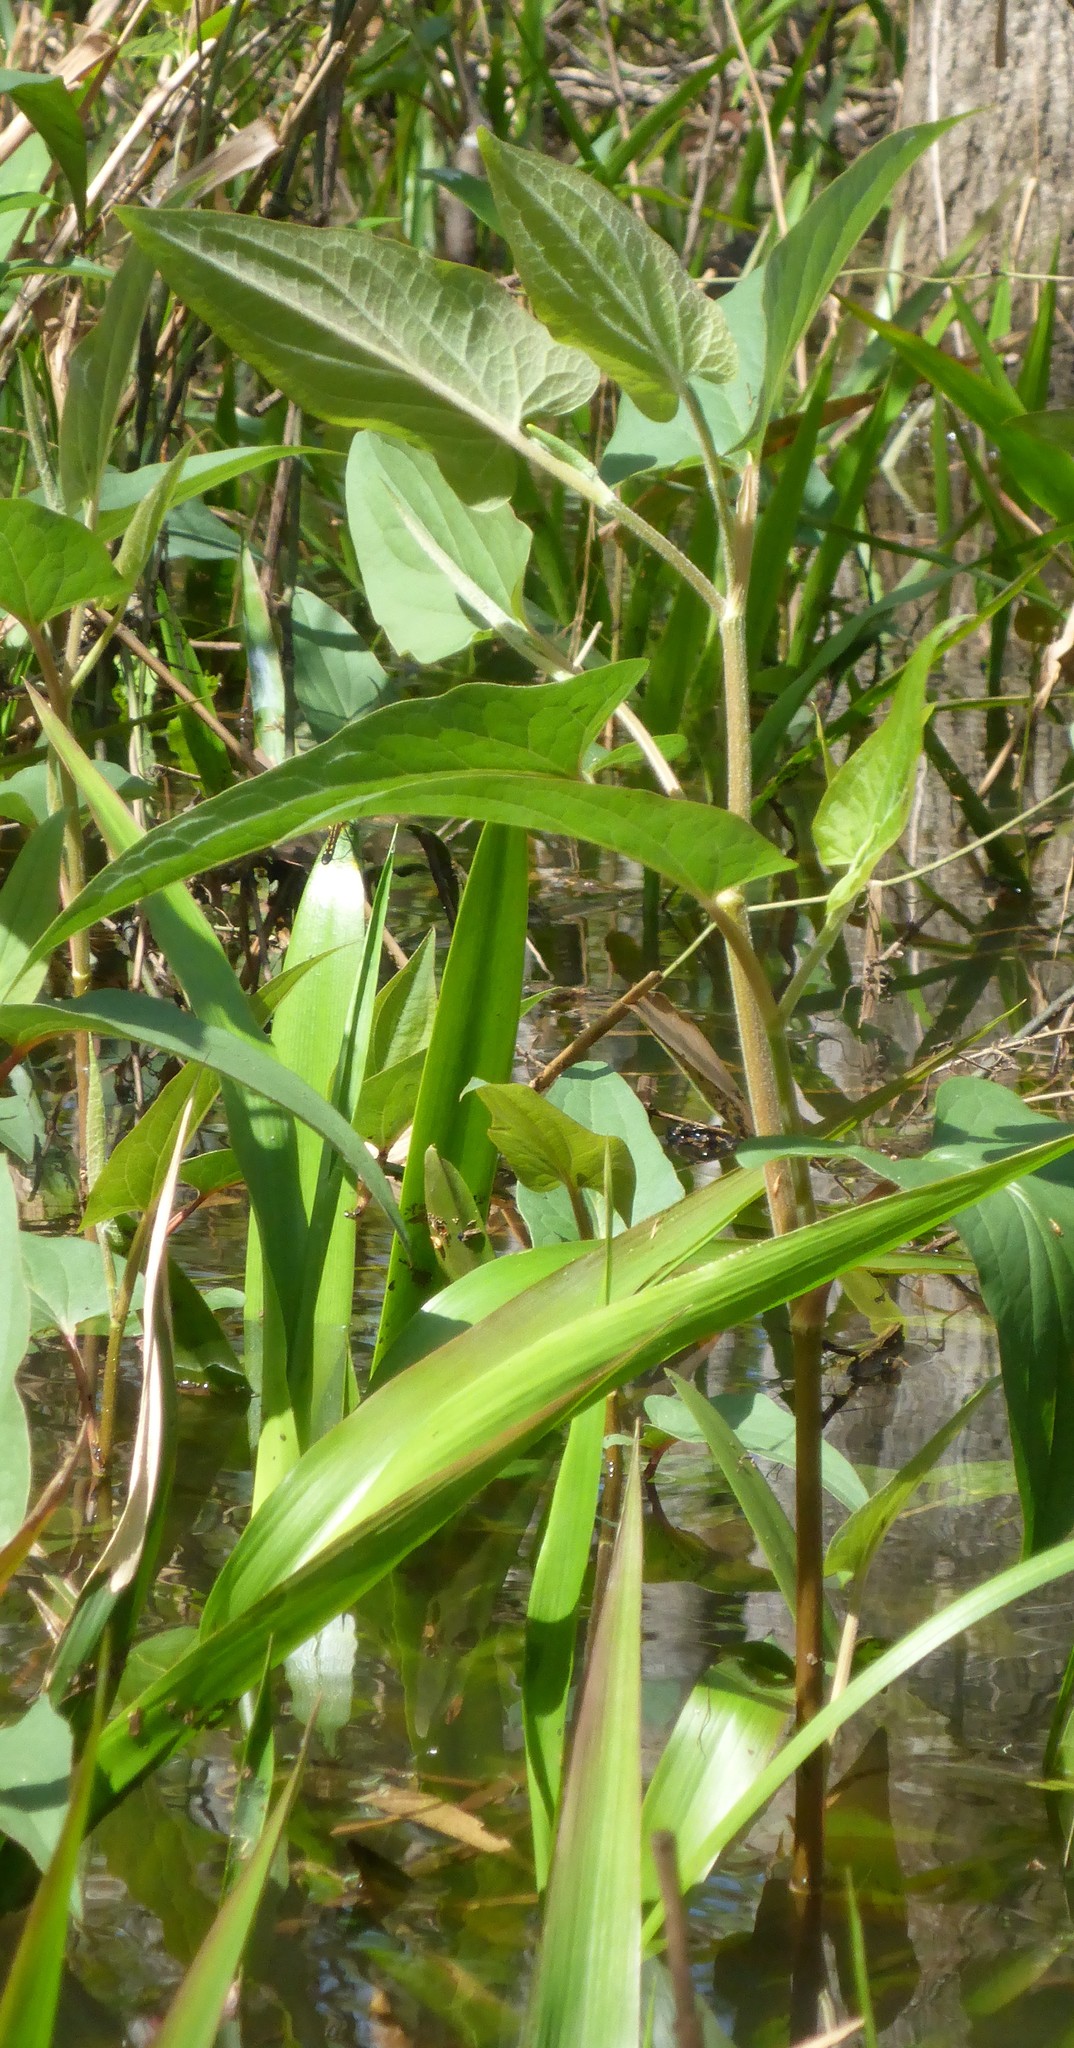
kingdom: Plantae
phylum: Tracheophyta
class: Magnoliopsida
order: Piperales
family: Saururaceae
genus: Saururus
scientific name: Saururus cernuus
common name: Lizard's-tail
